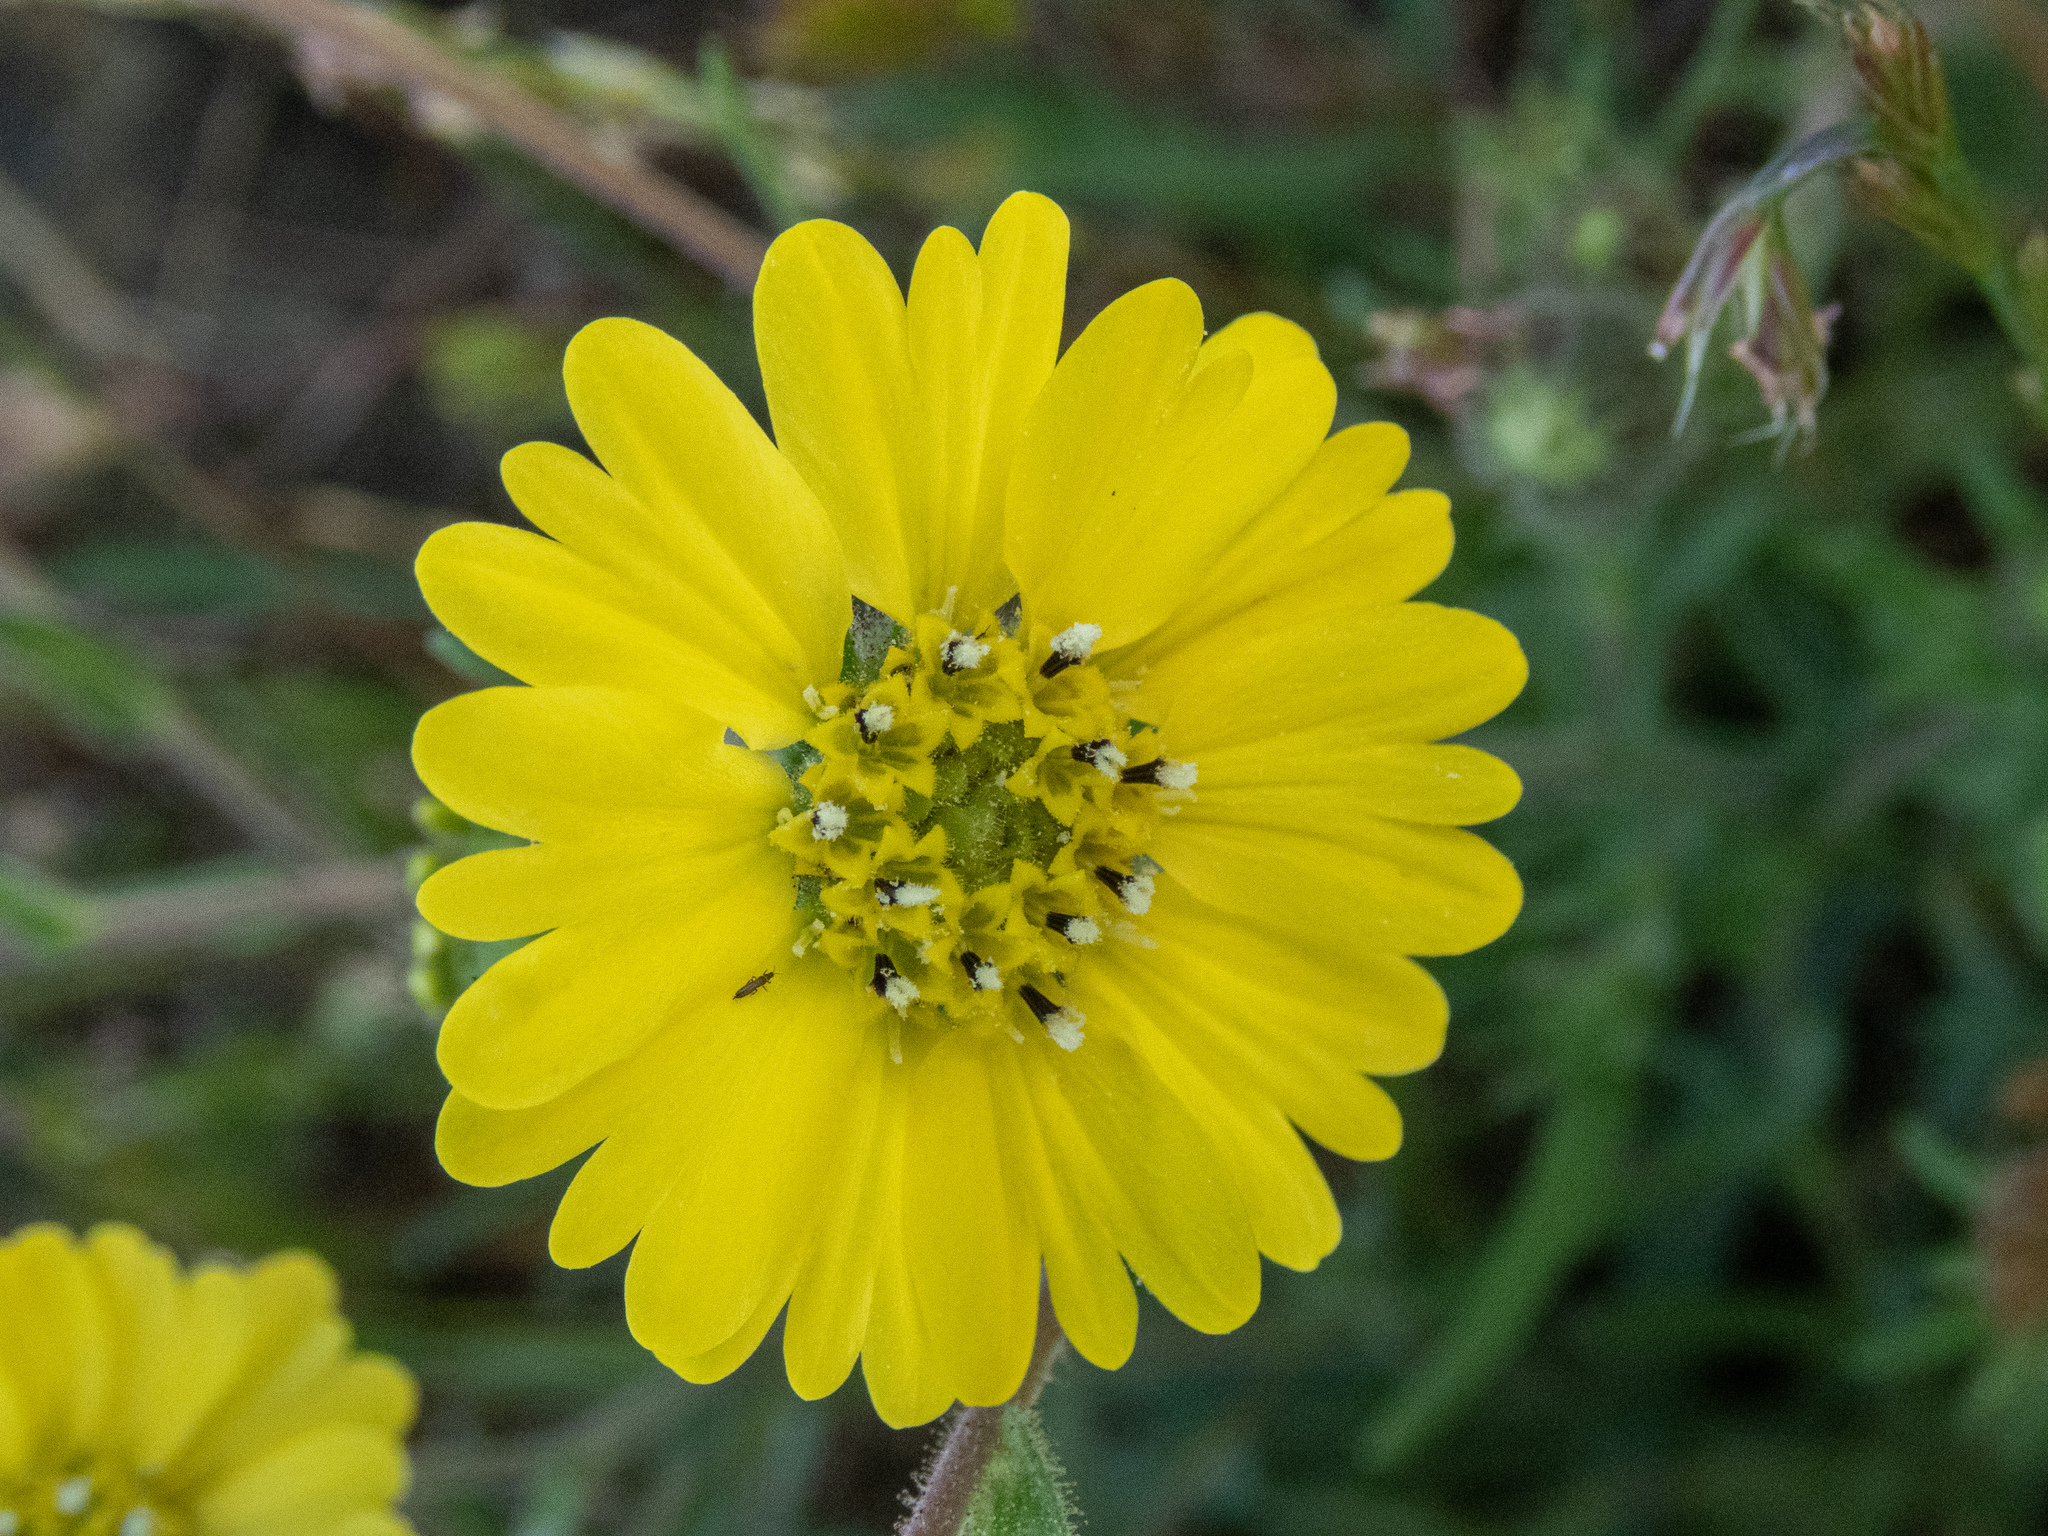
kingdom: Plantae
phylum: Tracheophyta
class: Magnoliopsida
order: Asterales
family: Asteraceae
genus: Hemizonia
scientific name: Hemizonia congesta
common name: Hayfield tarweed
